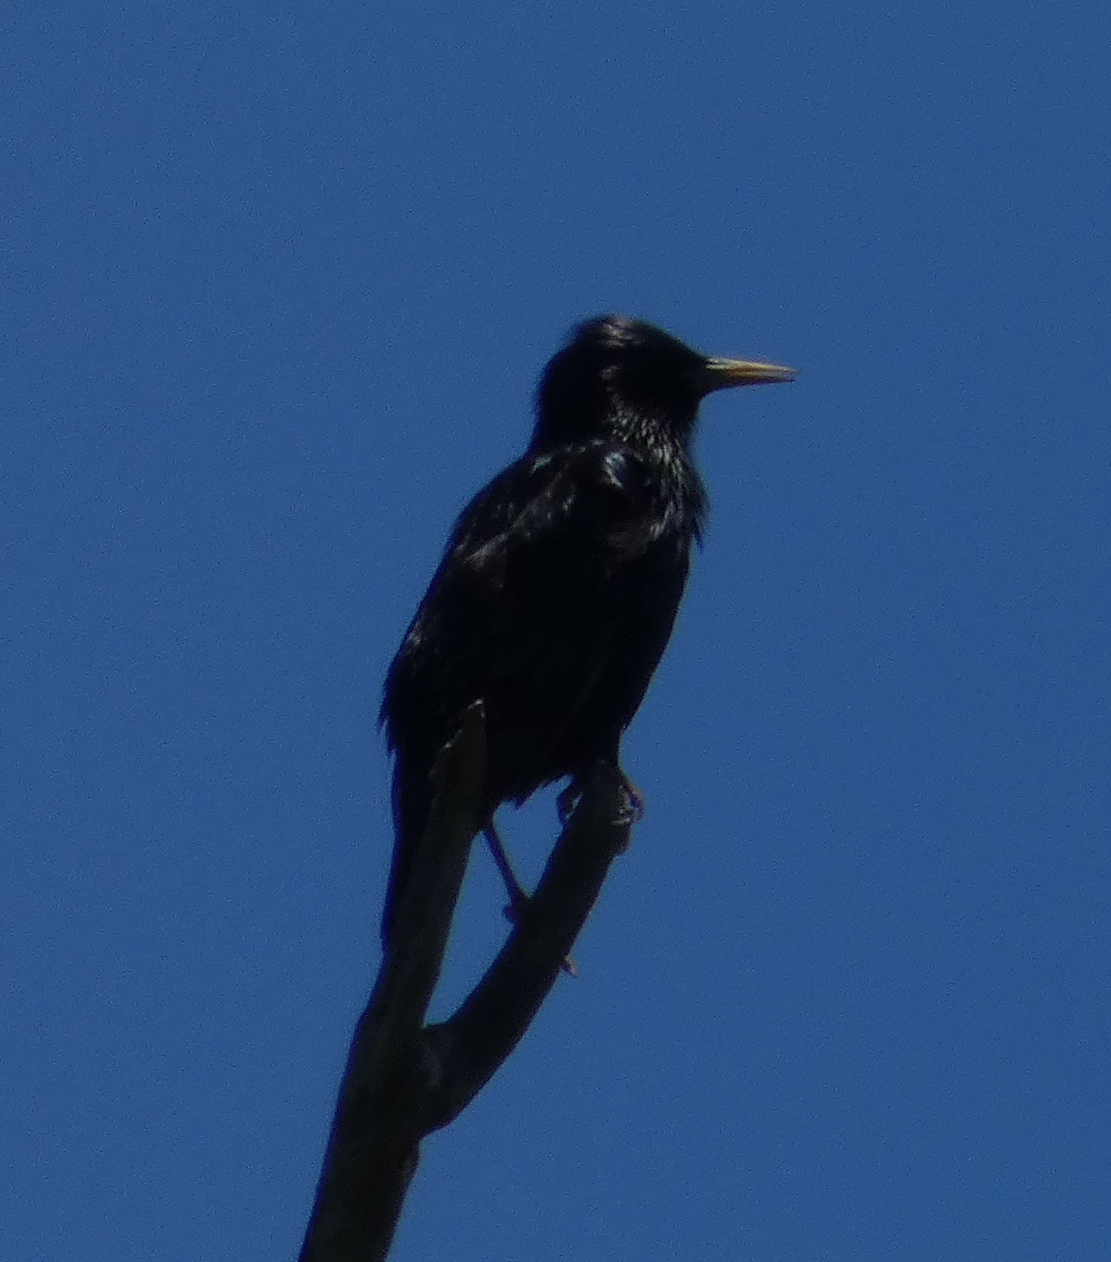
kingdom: Animalia
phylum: Chordata
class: Aves
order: Passeriformes
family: Sturnidae
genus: Sturnus
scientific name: Sturnus vulgaris
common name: Common starling
